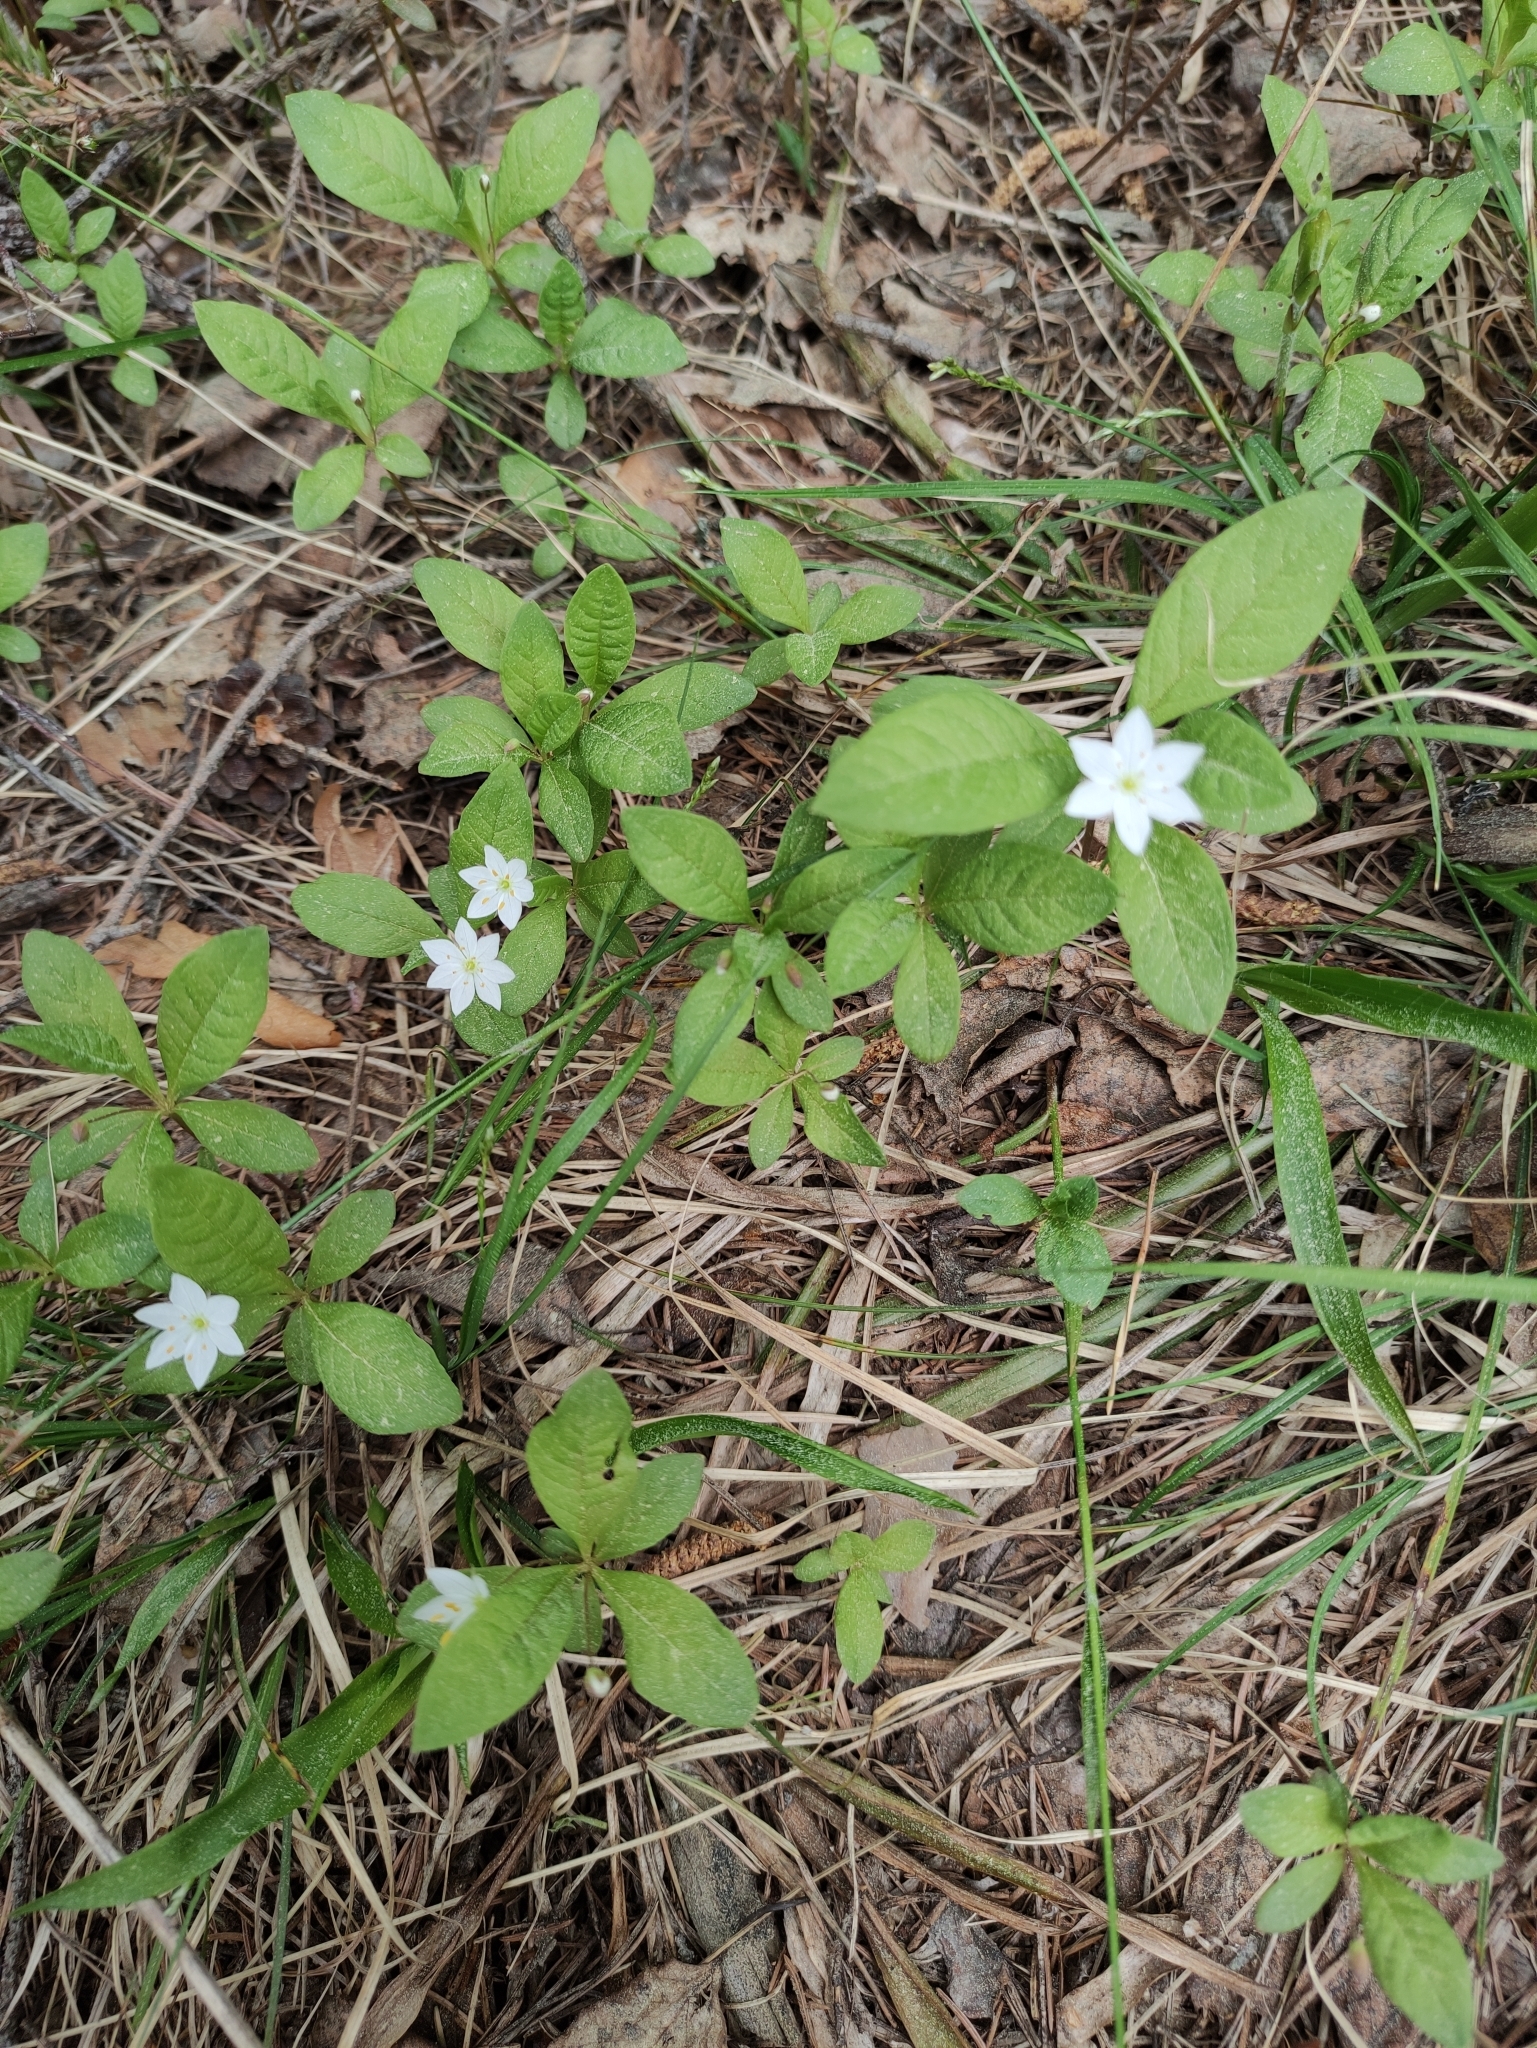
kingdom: Plantae
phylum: Tracheophyta
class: Magnoliopsida
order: Ericales
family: Primulaceae
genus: Lysimachia
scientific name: Lysimachia europaea
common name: Arctic starflower
